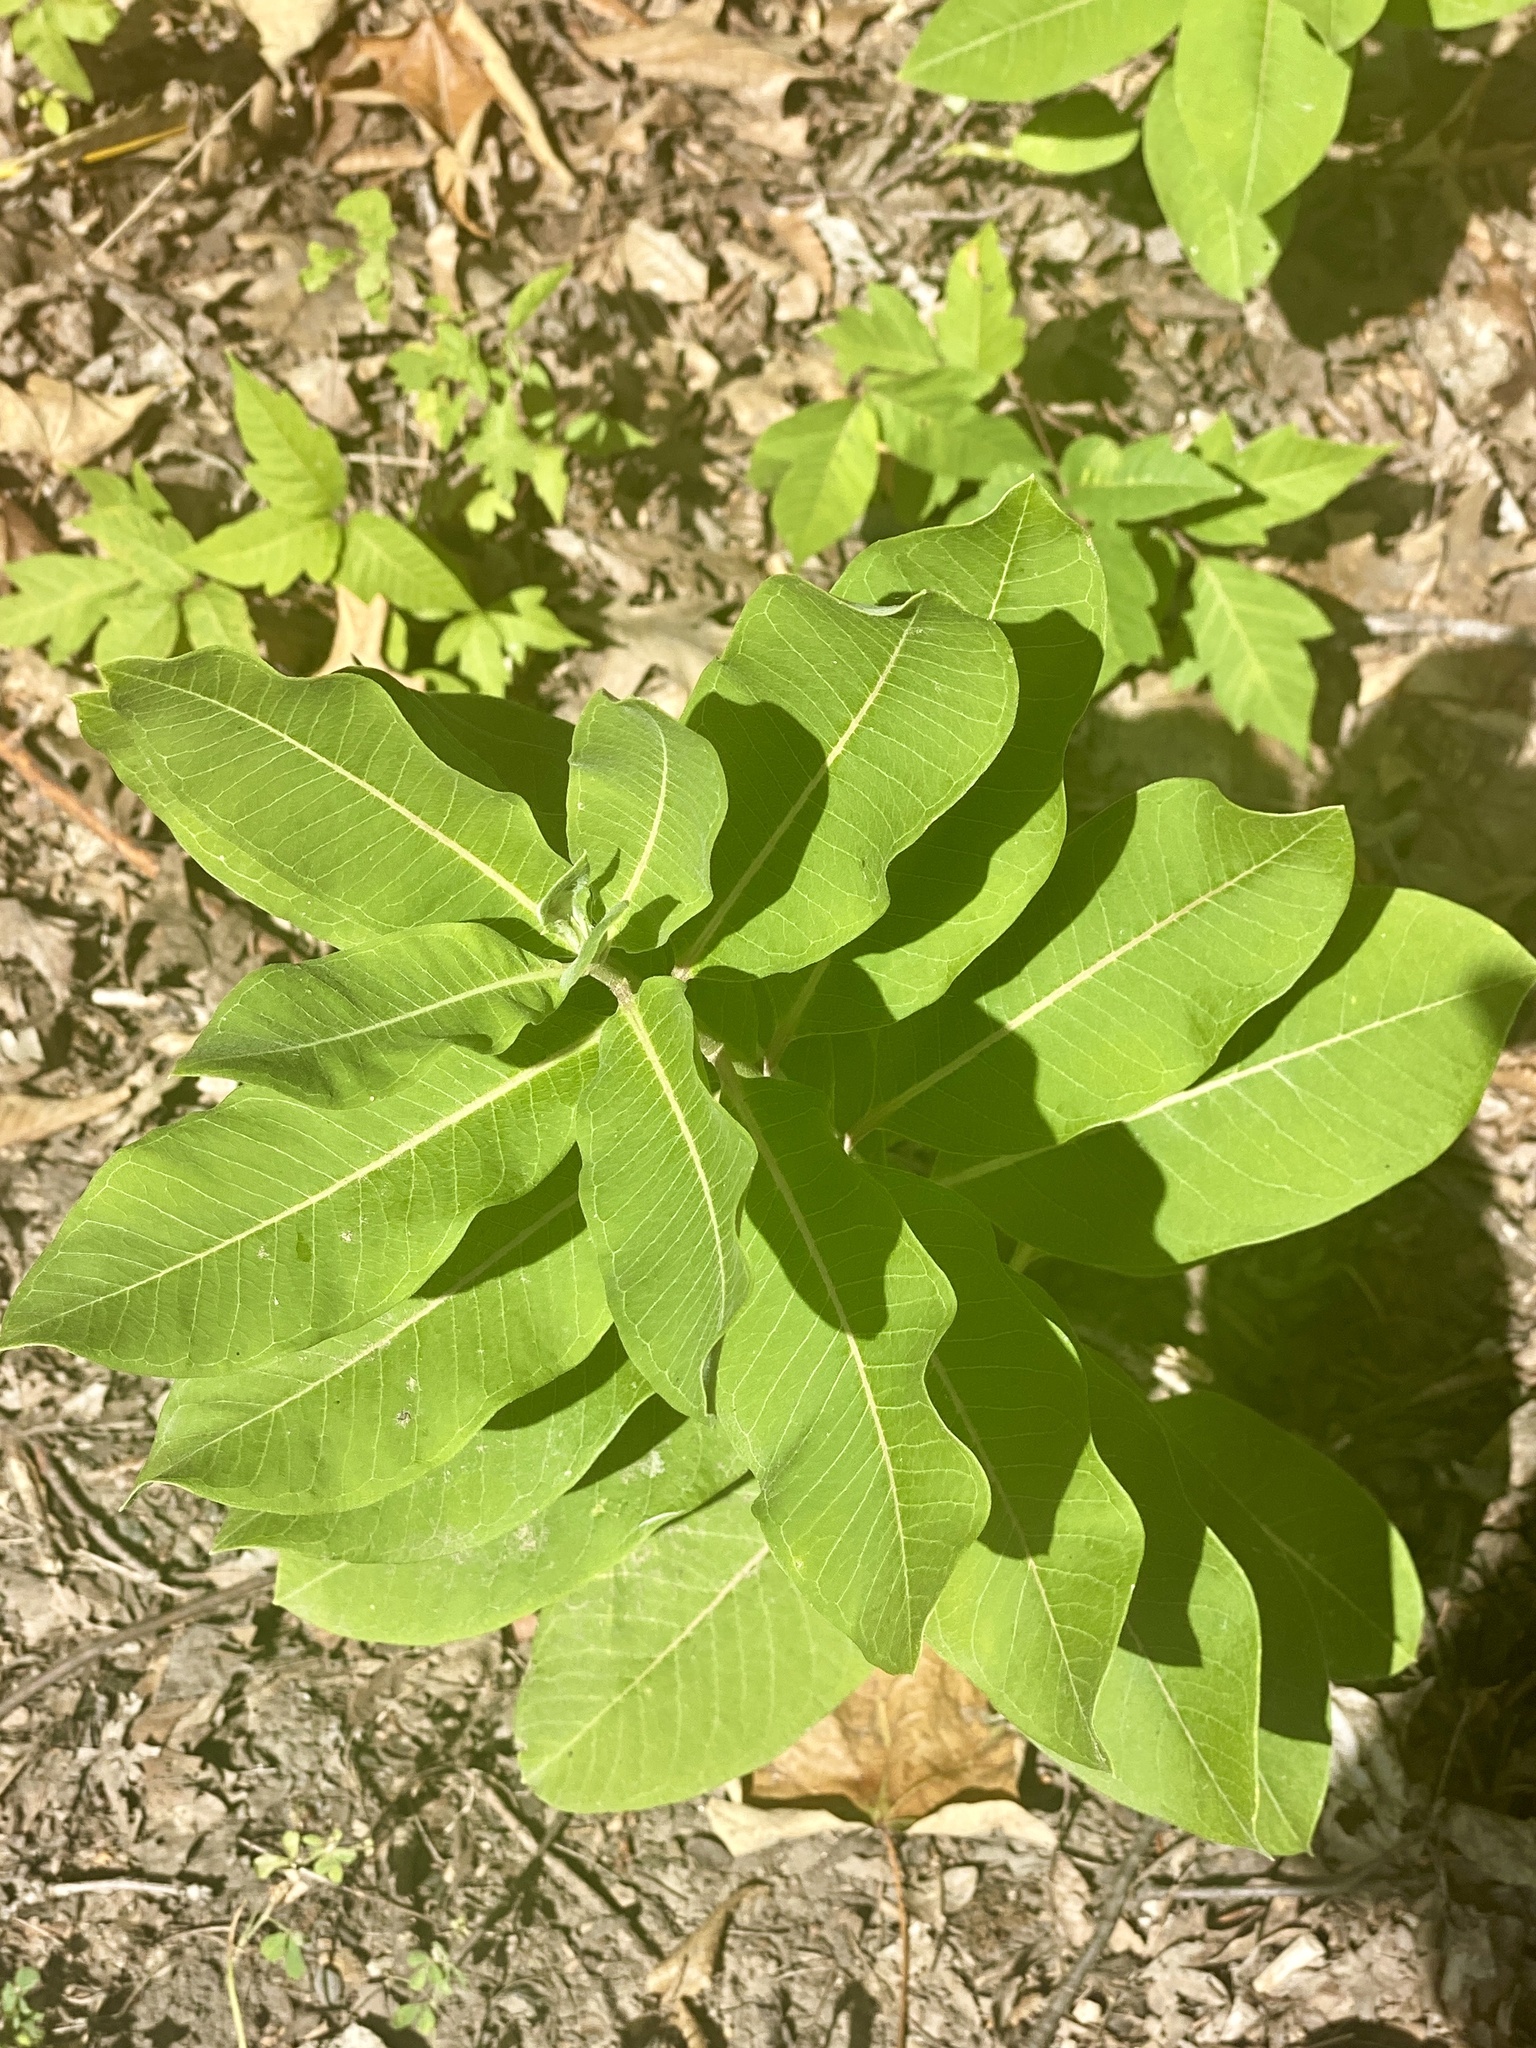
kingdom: Plantae
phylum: Tracheophyta
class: Magnoliopsida
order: Gentianales
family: Apocynaceae
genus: Asclepias
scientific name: Asclepias syriaca
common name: Common milkweed
